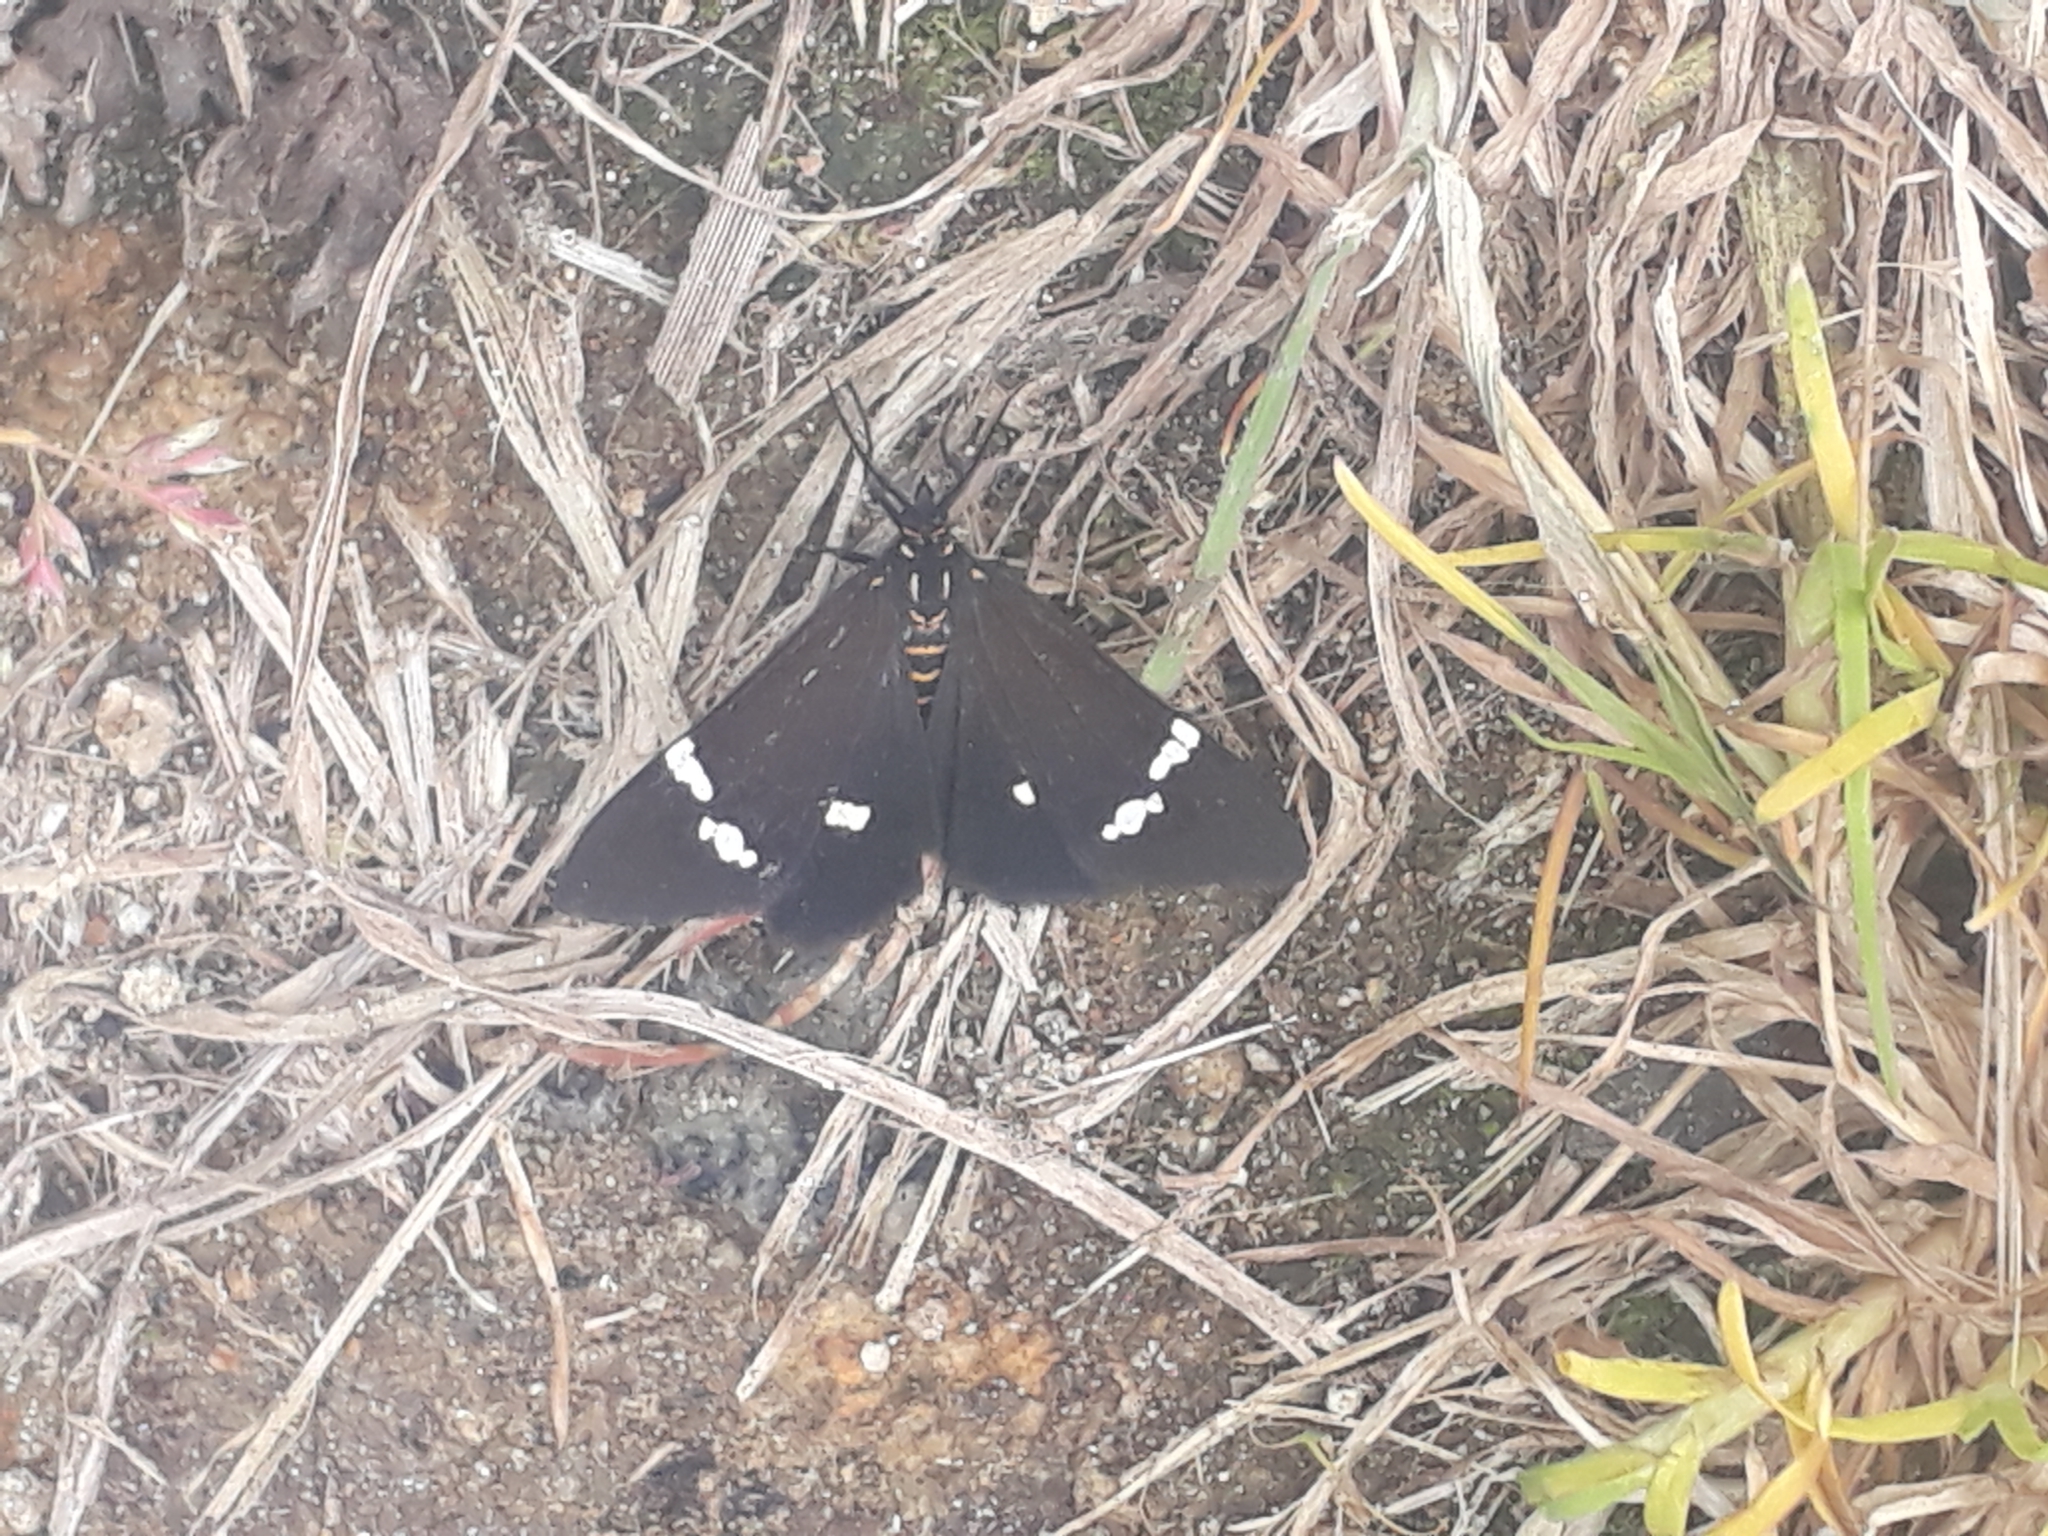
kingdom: Animalia
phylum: Arthropoda
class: Insecta
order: Lepidoptera
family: Erebidae
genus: Nyctemera
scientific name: Nyctemera annulatum
